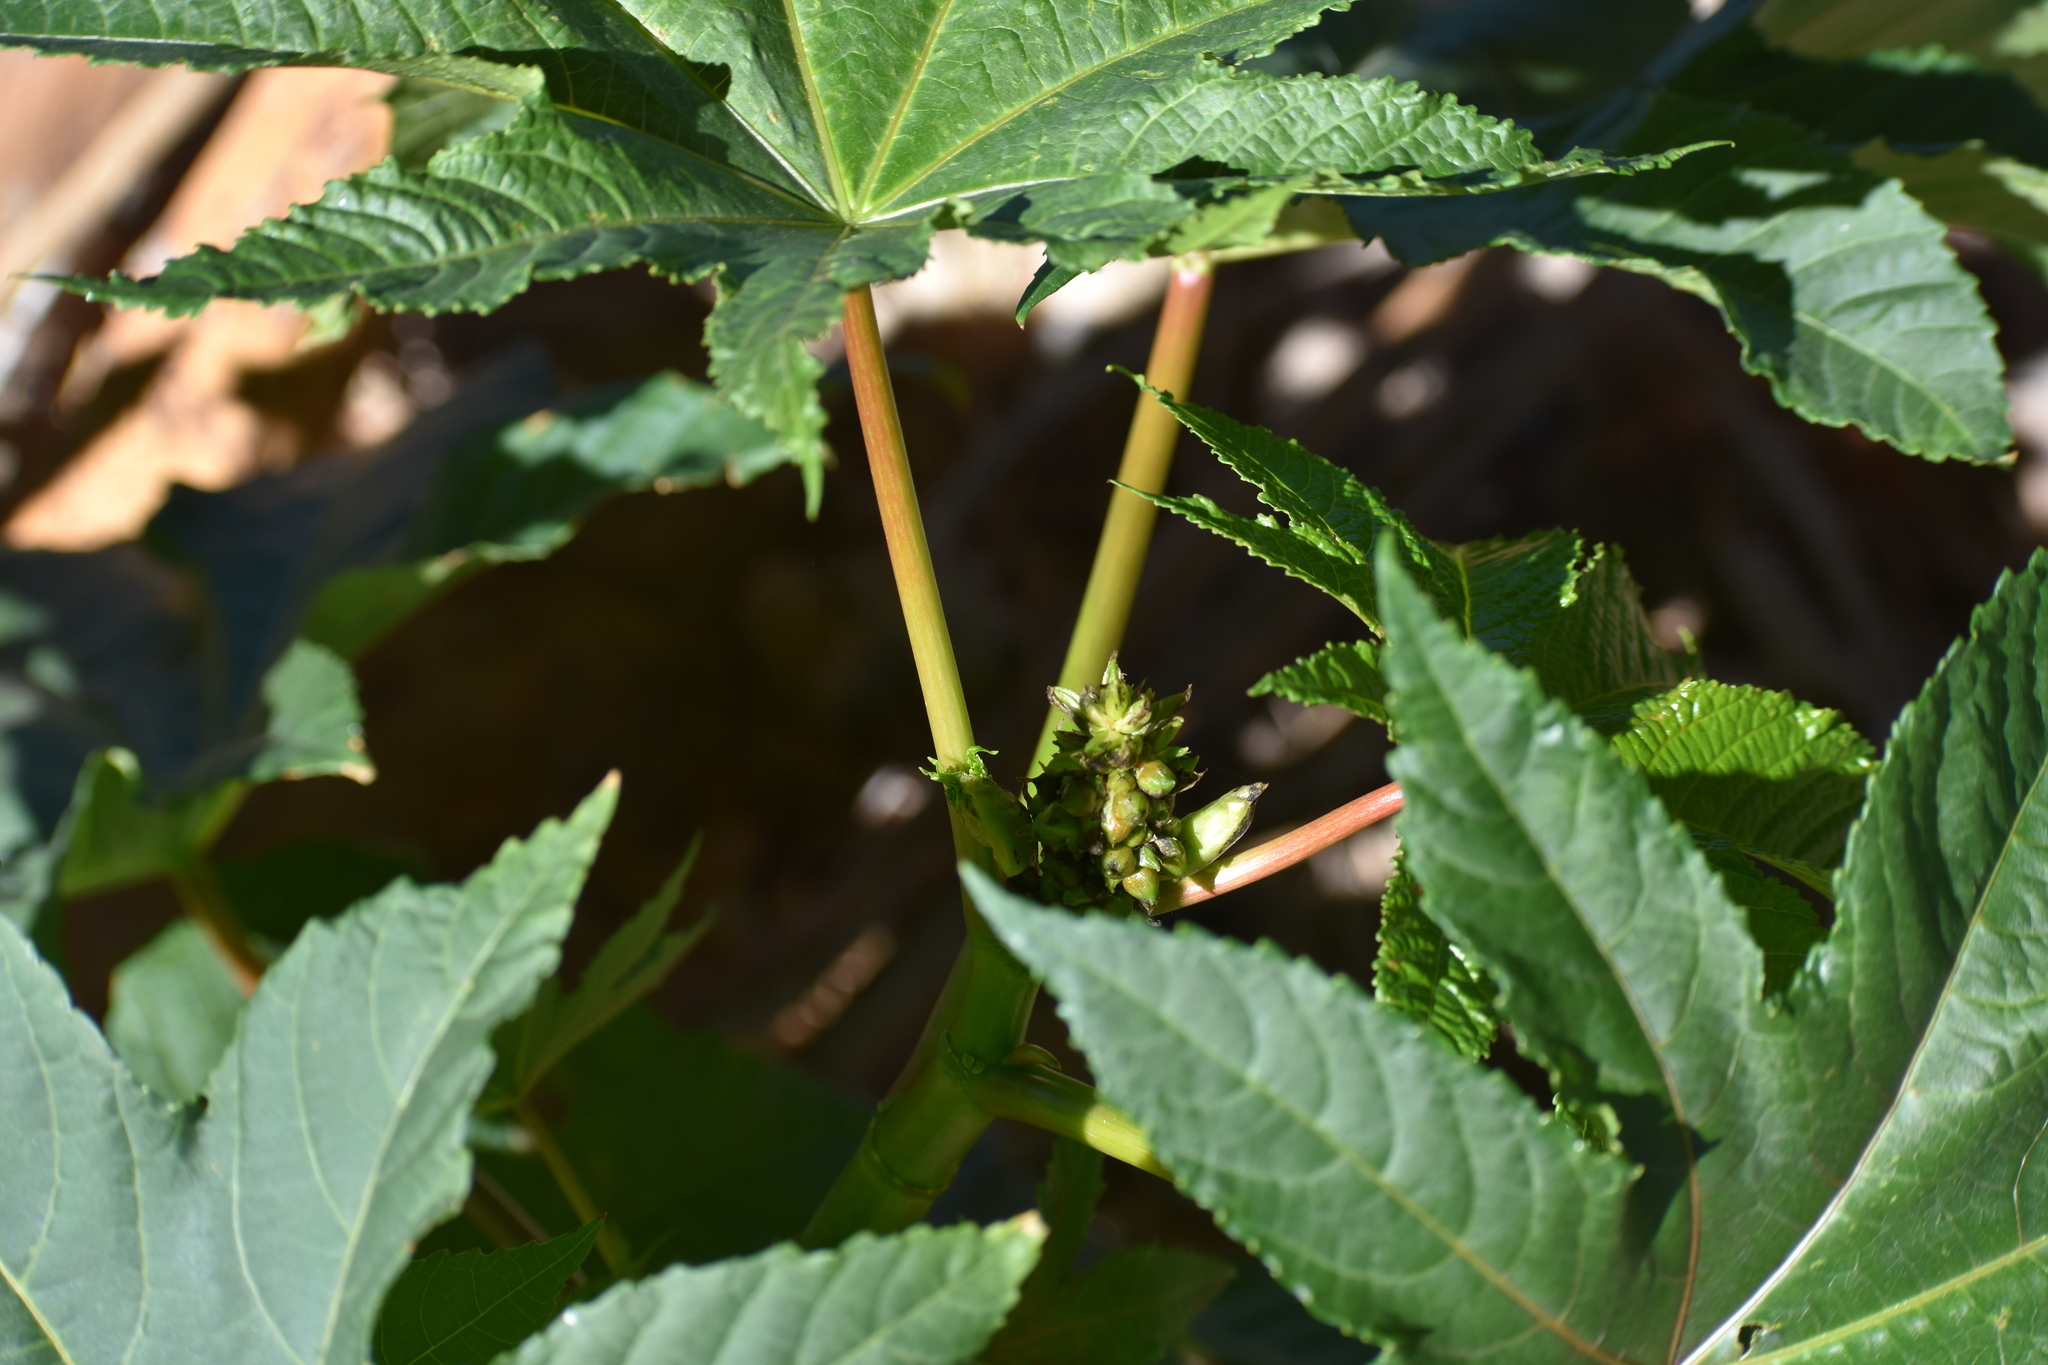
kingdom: Plantae
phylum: Tracheophyta
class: Magnoliopsida
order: Malpighiales
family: Euphorbiaceae
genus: Ricinus
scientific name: Ricinus communis
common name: Castor-oil-plant
